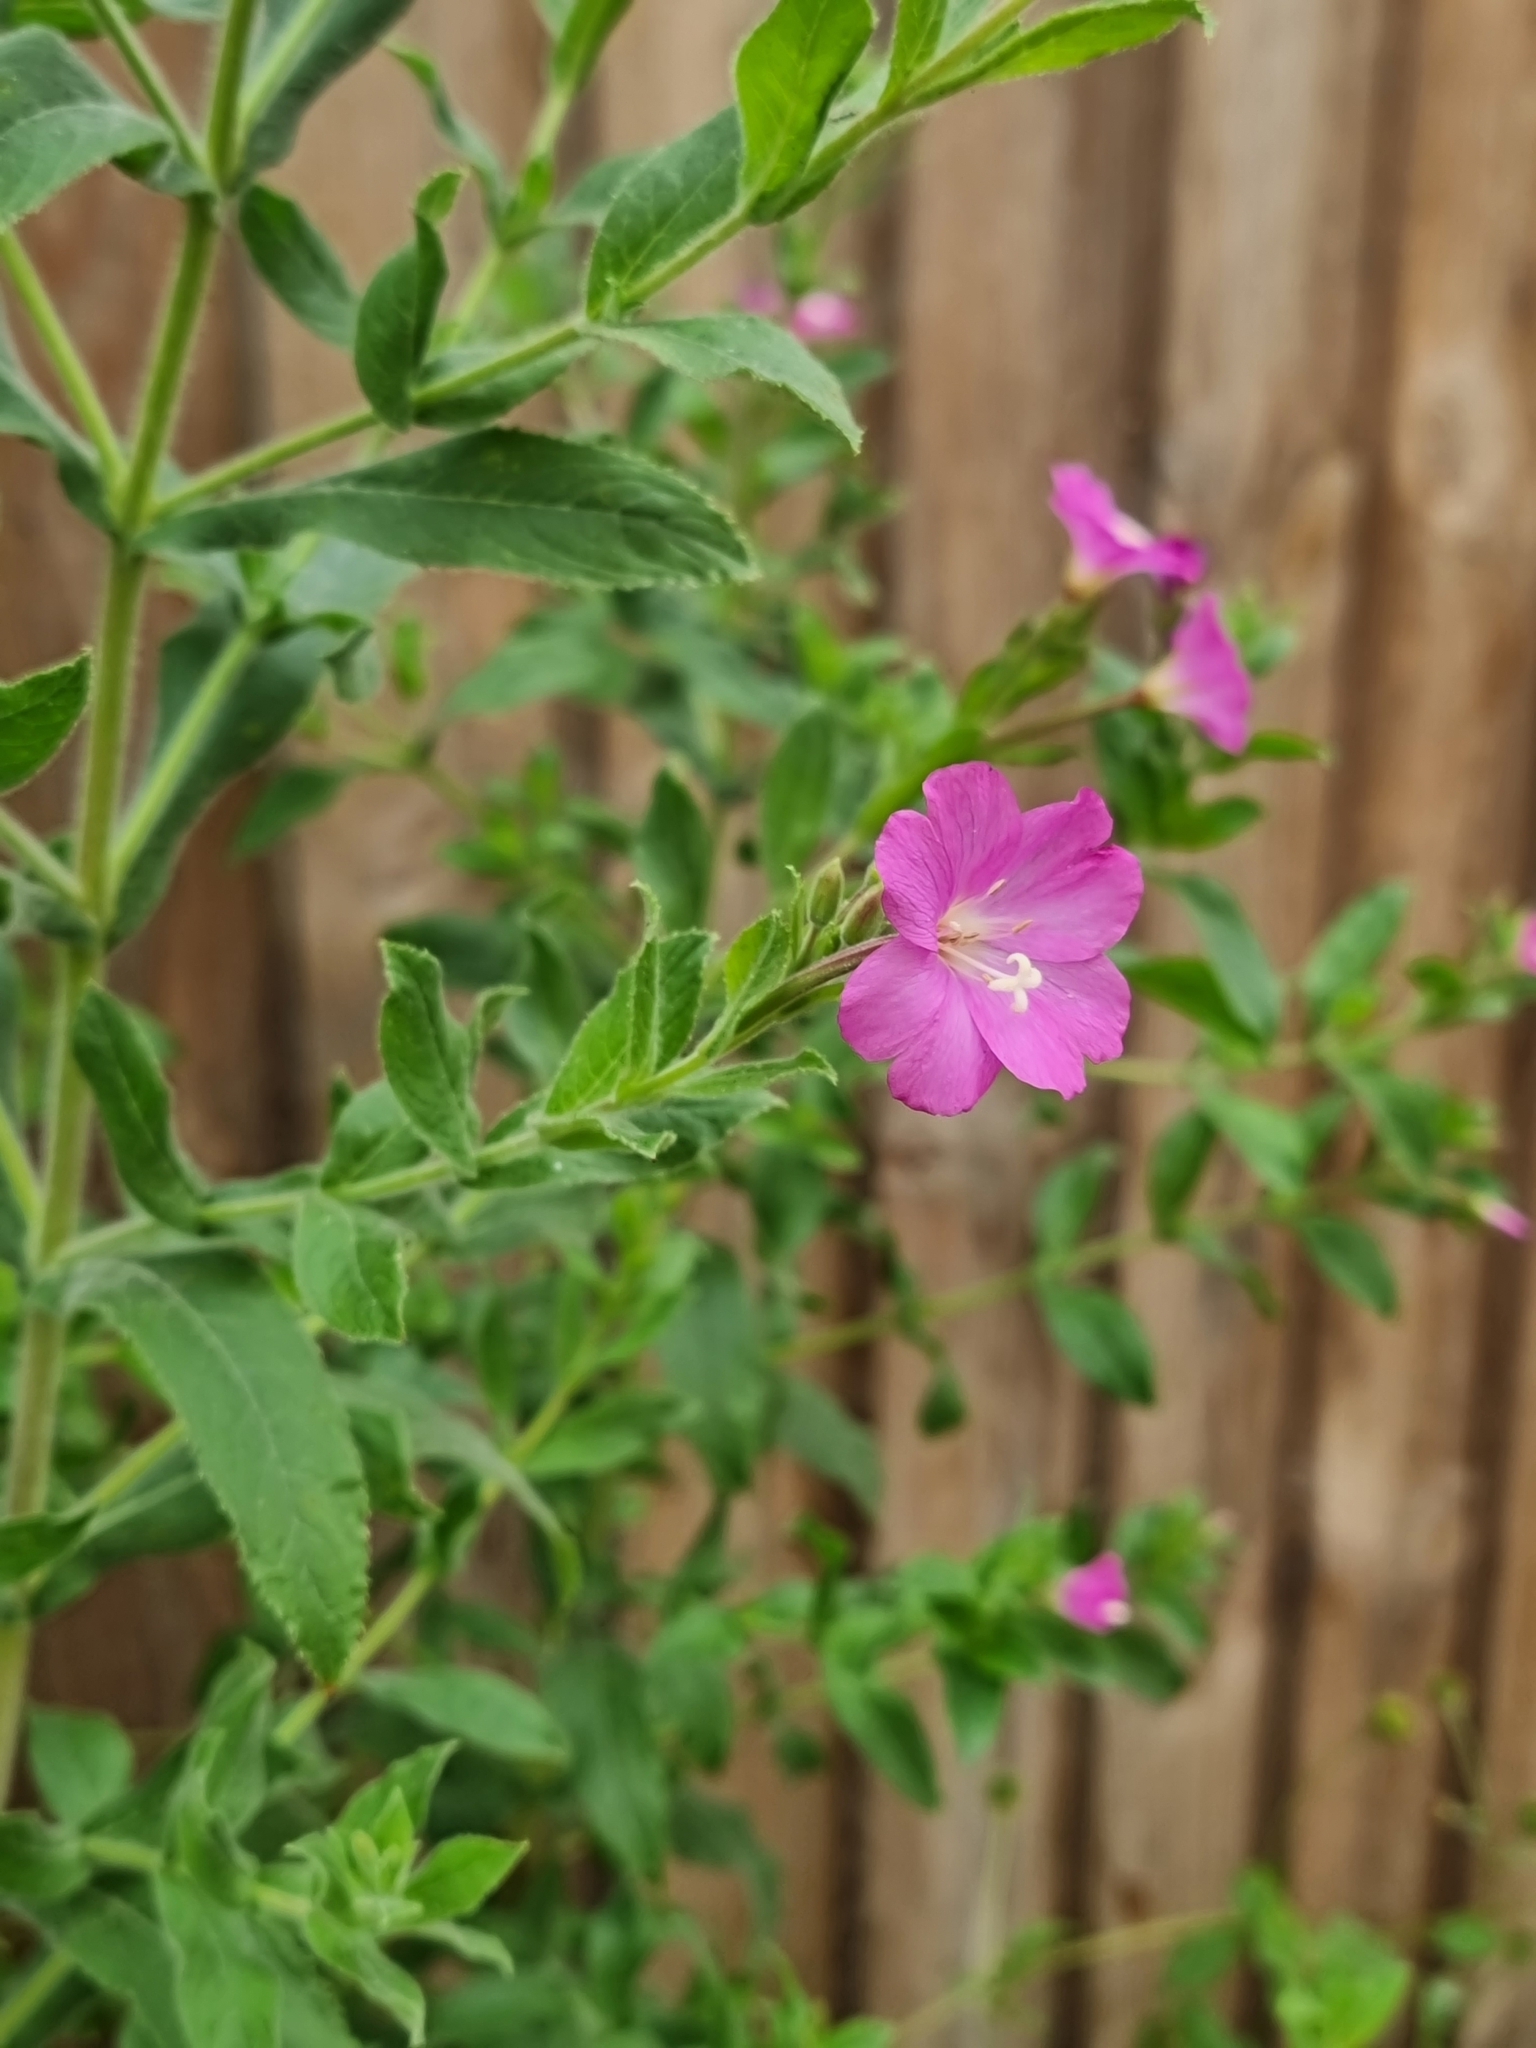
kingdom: Plantae
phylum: Tracheophyta
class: Magnoliopsida
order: Myrtales
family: Onagraceae
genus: Epilobium
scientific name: Epilobium hirsutum
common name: Great willowherb
